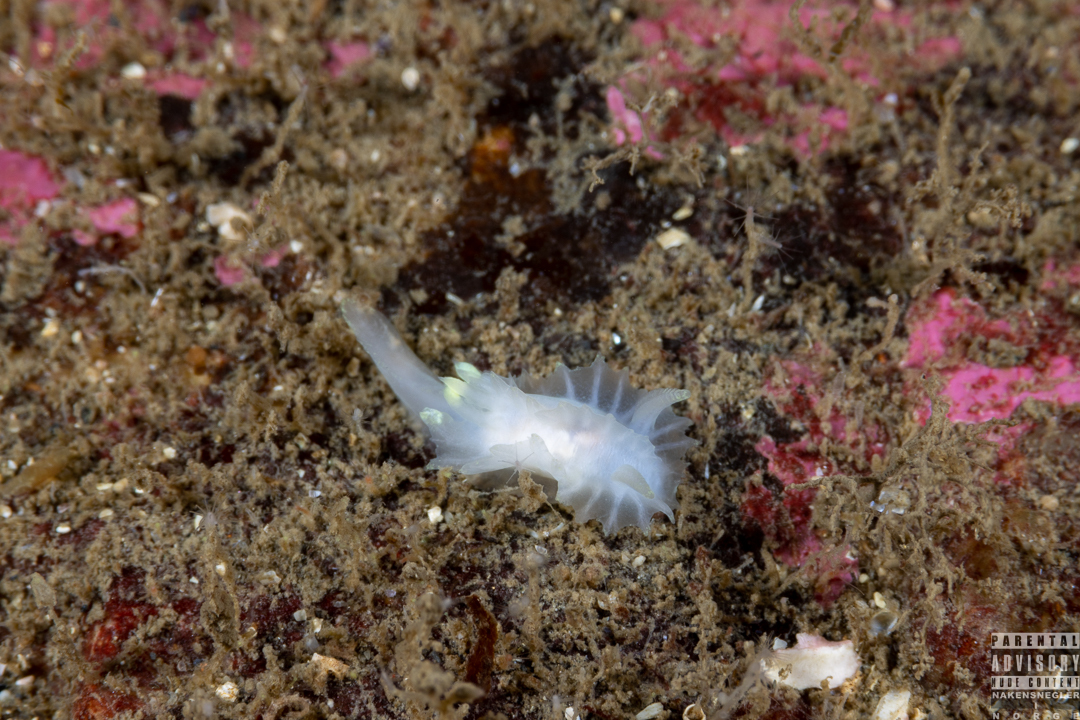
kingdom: Animalia
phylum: Mollusca
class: Gastropoda
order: Nudibranchia
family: Goniodorididae
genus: Lophodoris
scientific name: Lophodoris danielsseni
